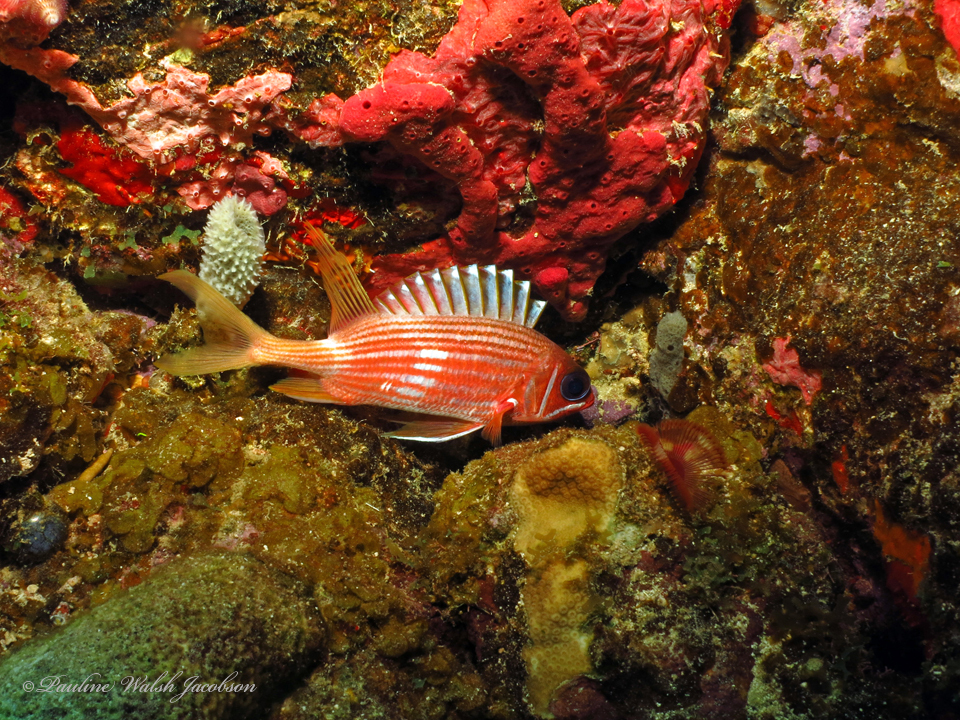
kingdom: Animalia
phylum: Chordata
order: Beryciformes
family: Holocentridae
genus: Holocentrus
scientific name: Holocentrus rufus
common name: Longspine squirrelfish
